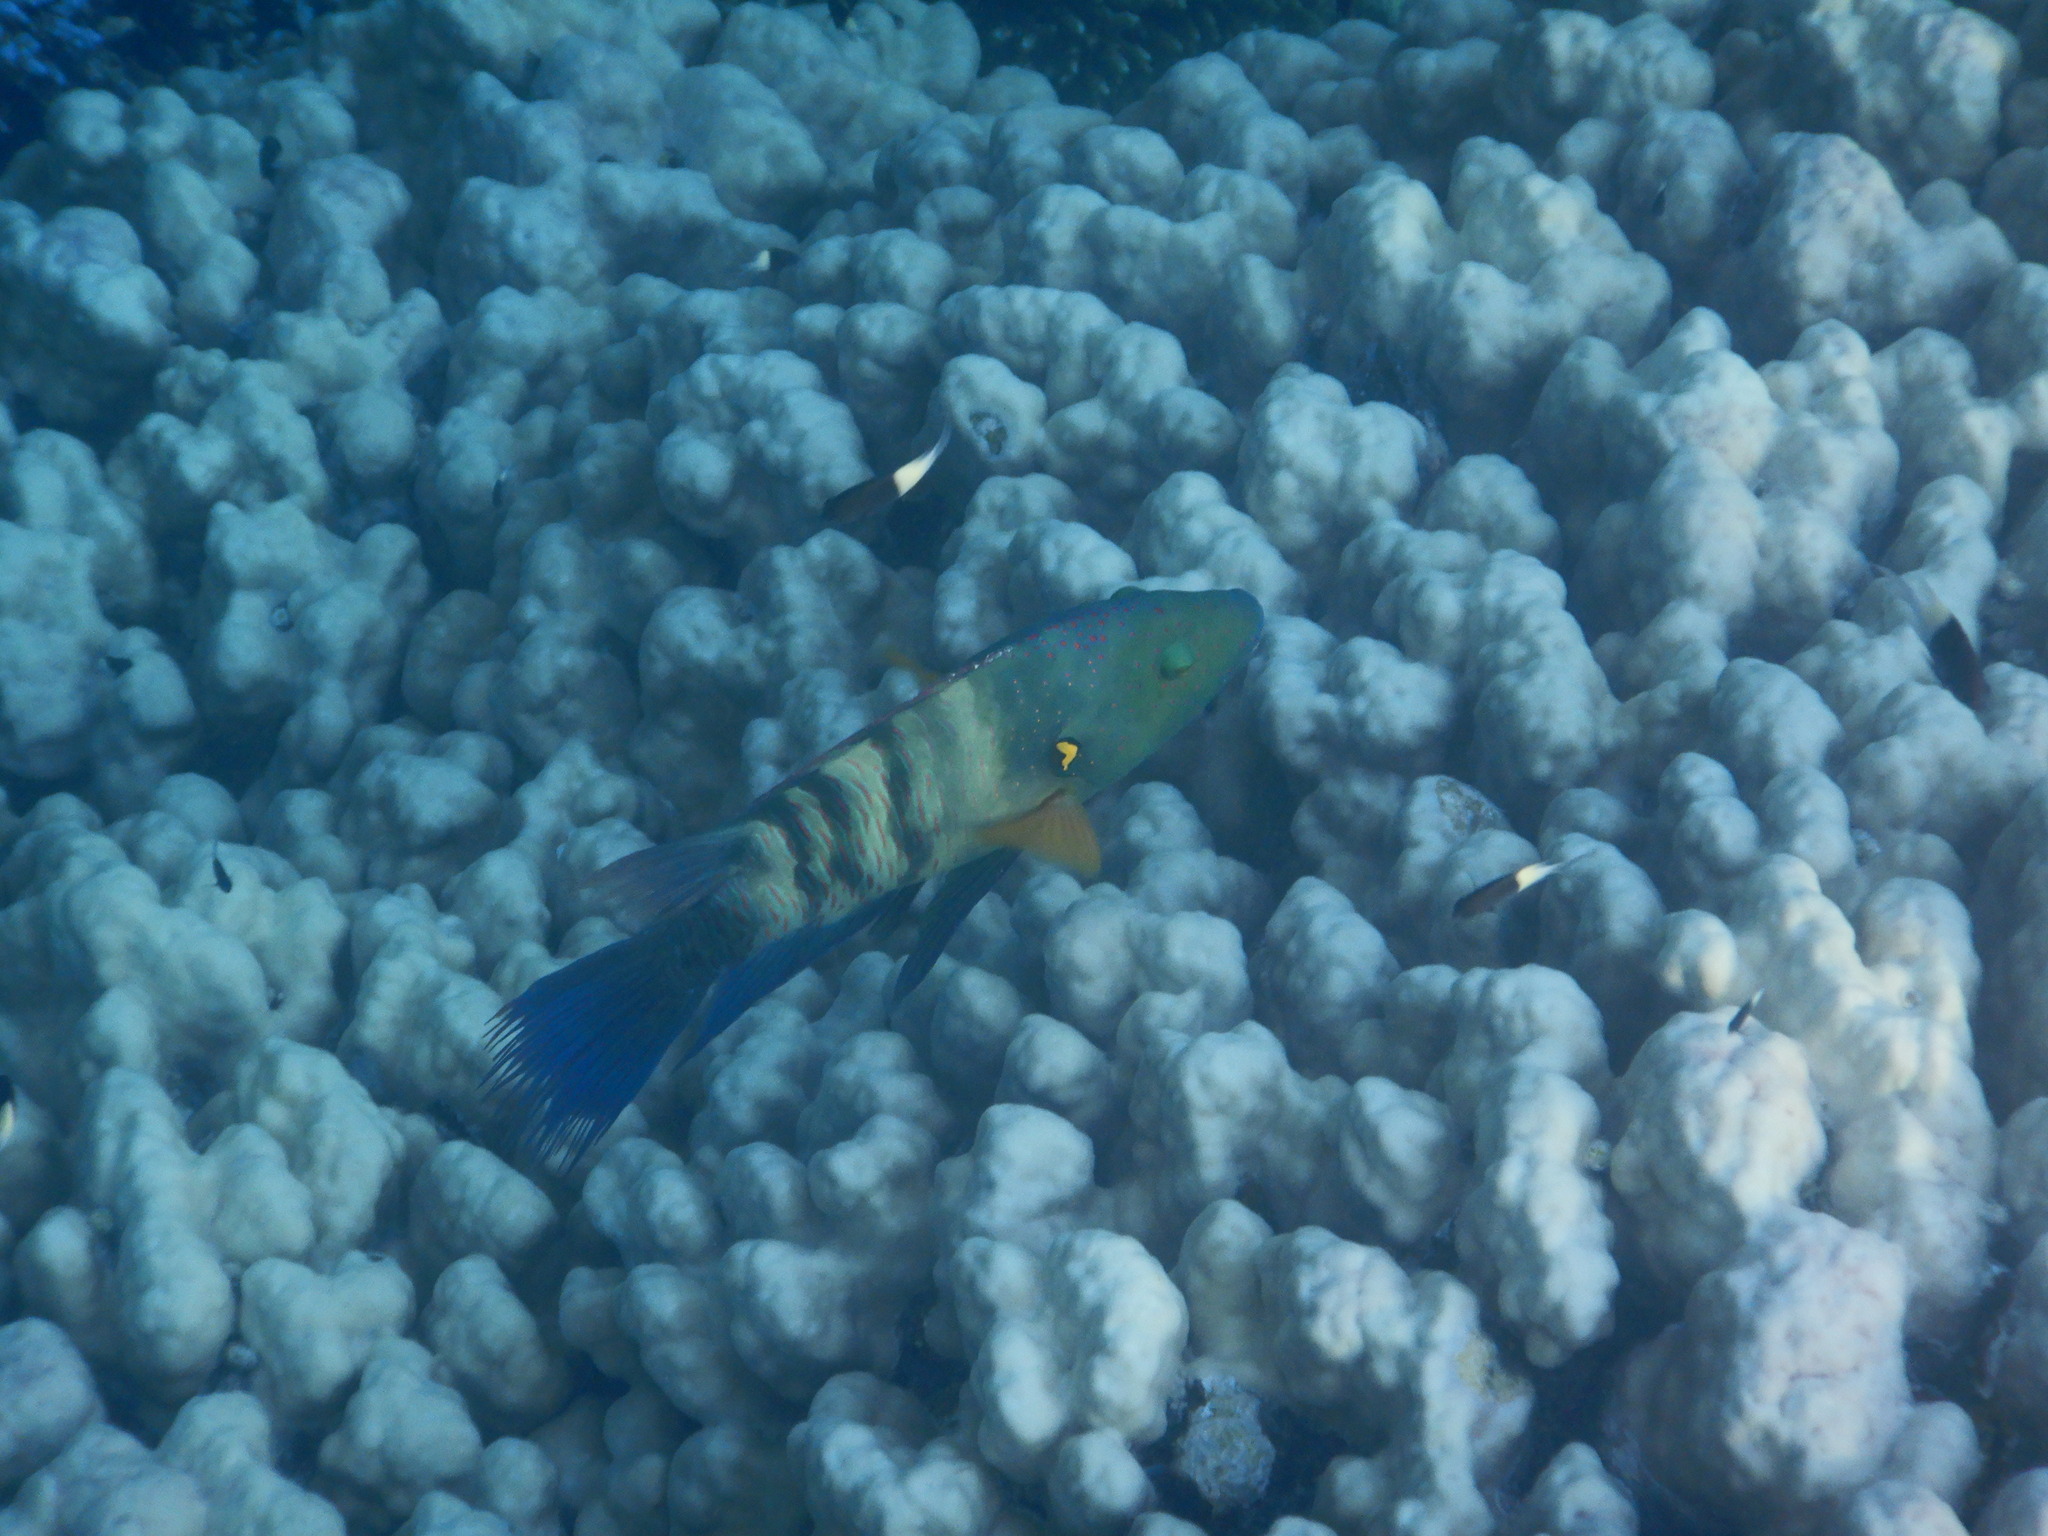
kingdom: Animalia
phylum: Chordata
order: Perciformes
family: Labridae
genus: Cheilinus
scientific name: Cheilinus lunulatus
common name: Broomtail wrasse
